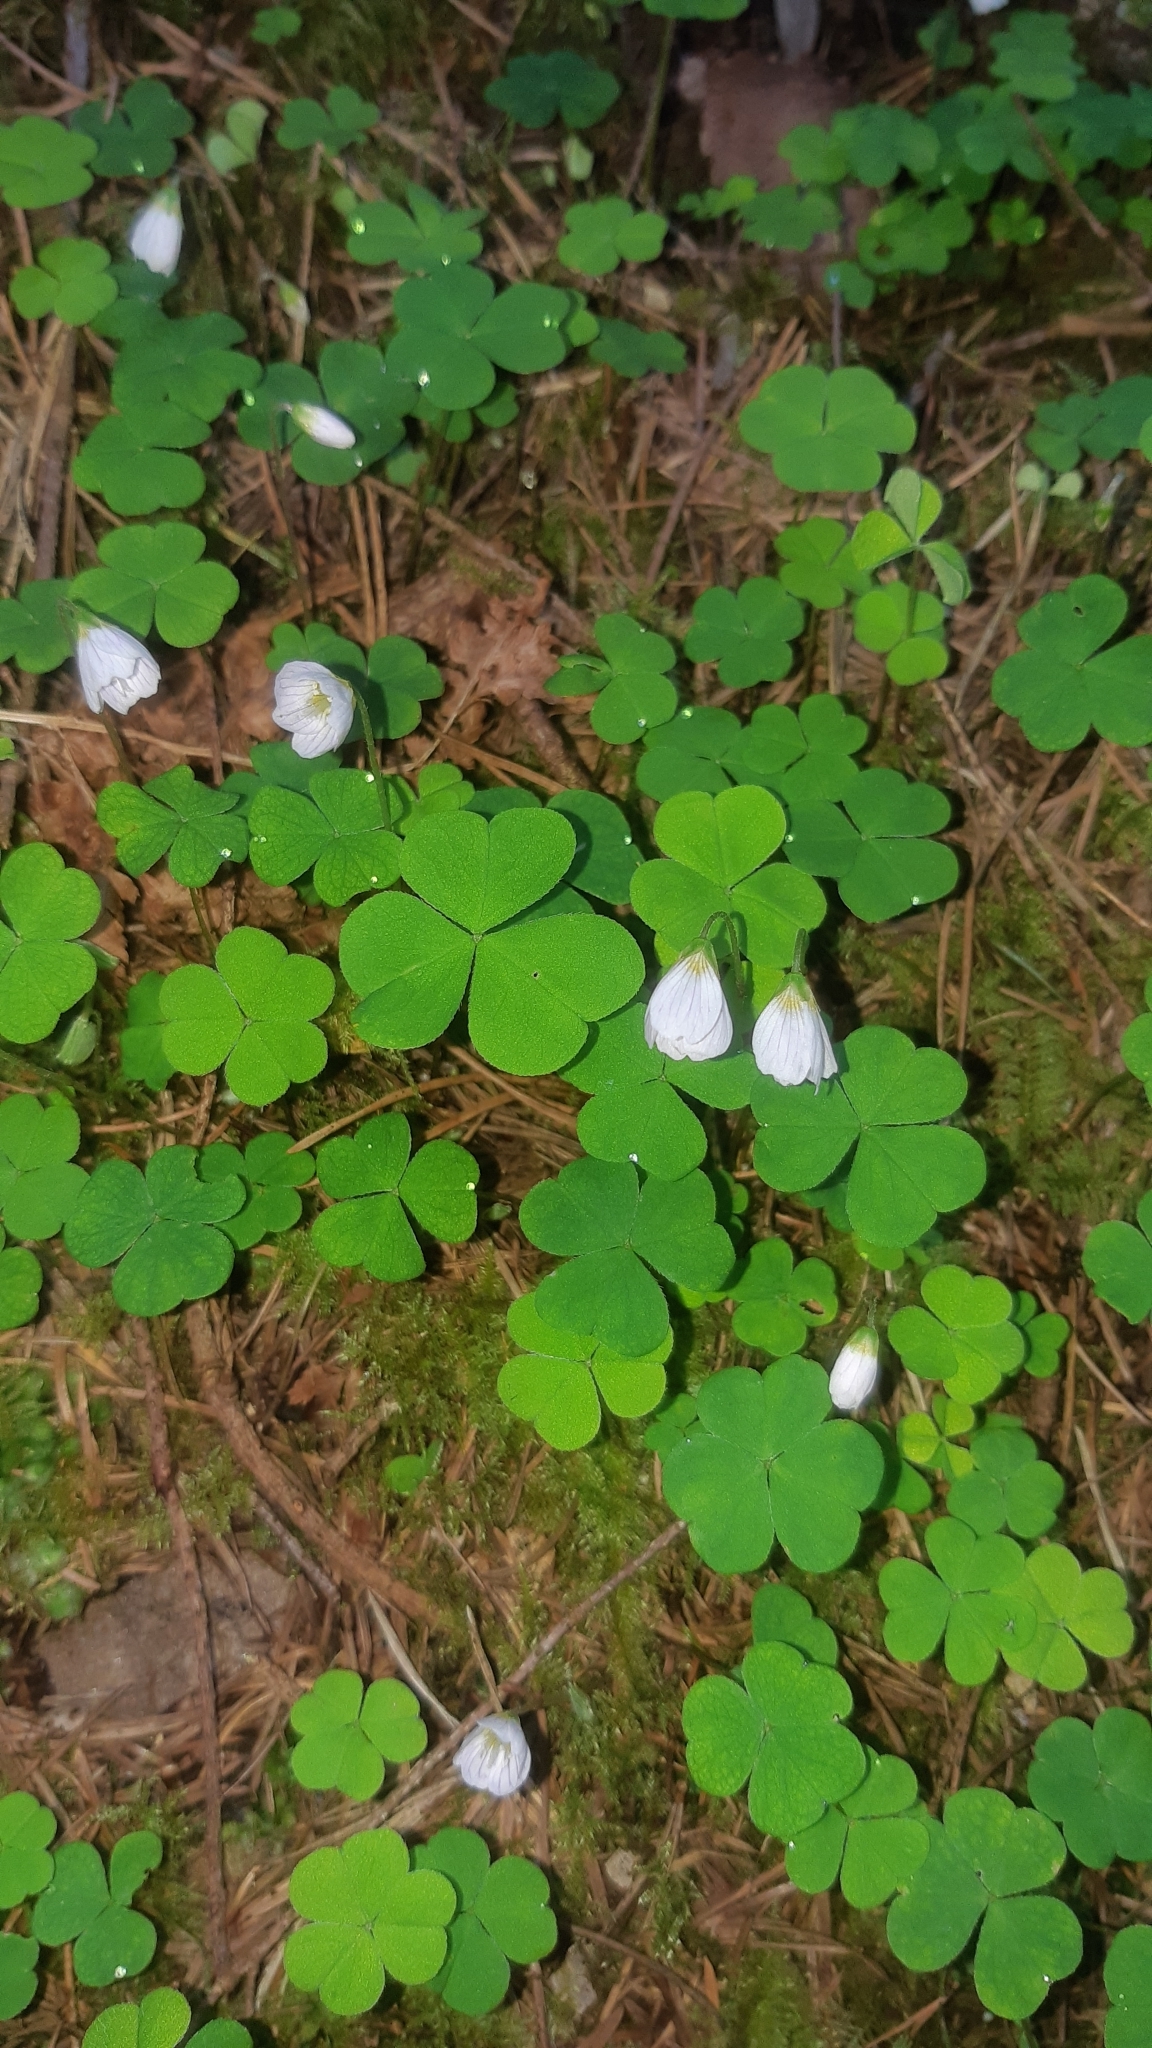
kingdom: Plantae
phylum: Tracheophyta
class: Magnoliopsida
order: Oxalidales
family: Oxalidaceae
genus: Oxalis
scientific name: Oxalis acetosella
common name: Wood-sorrel
